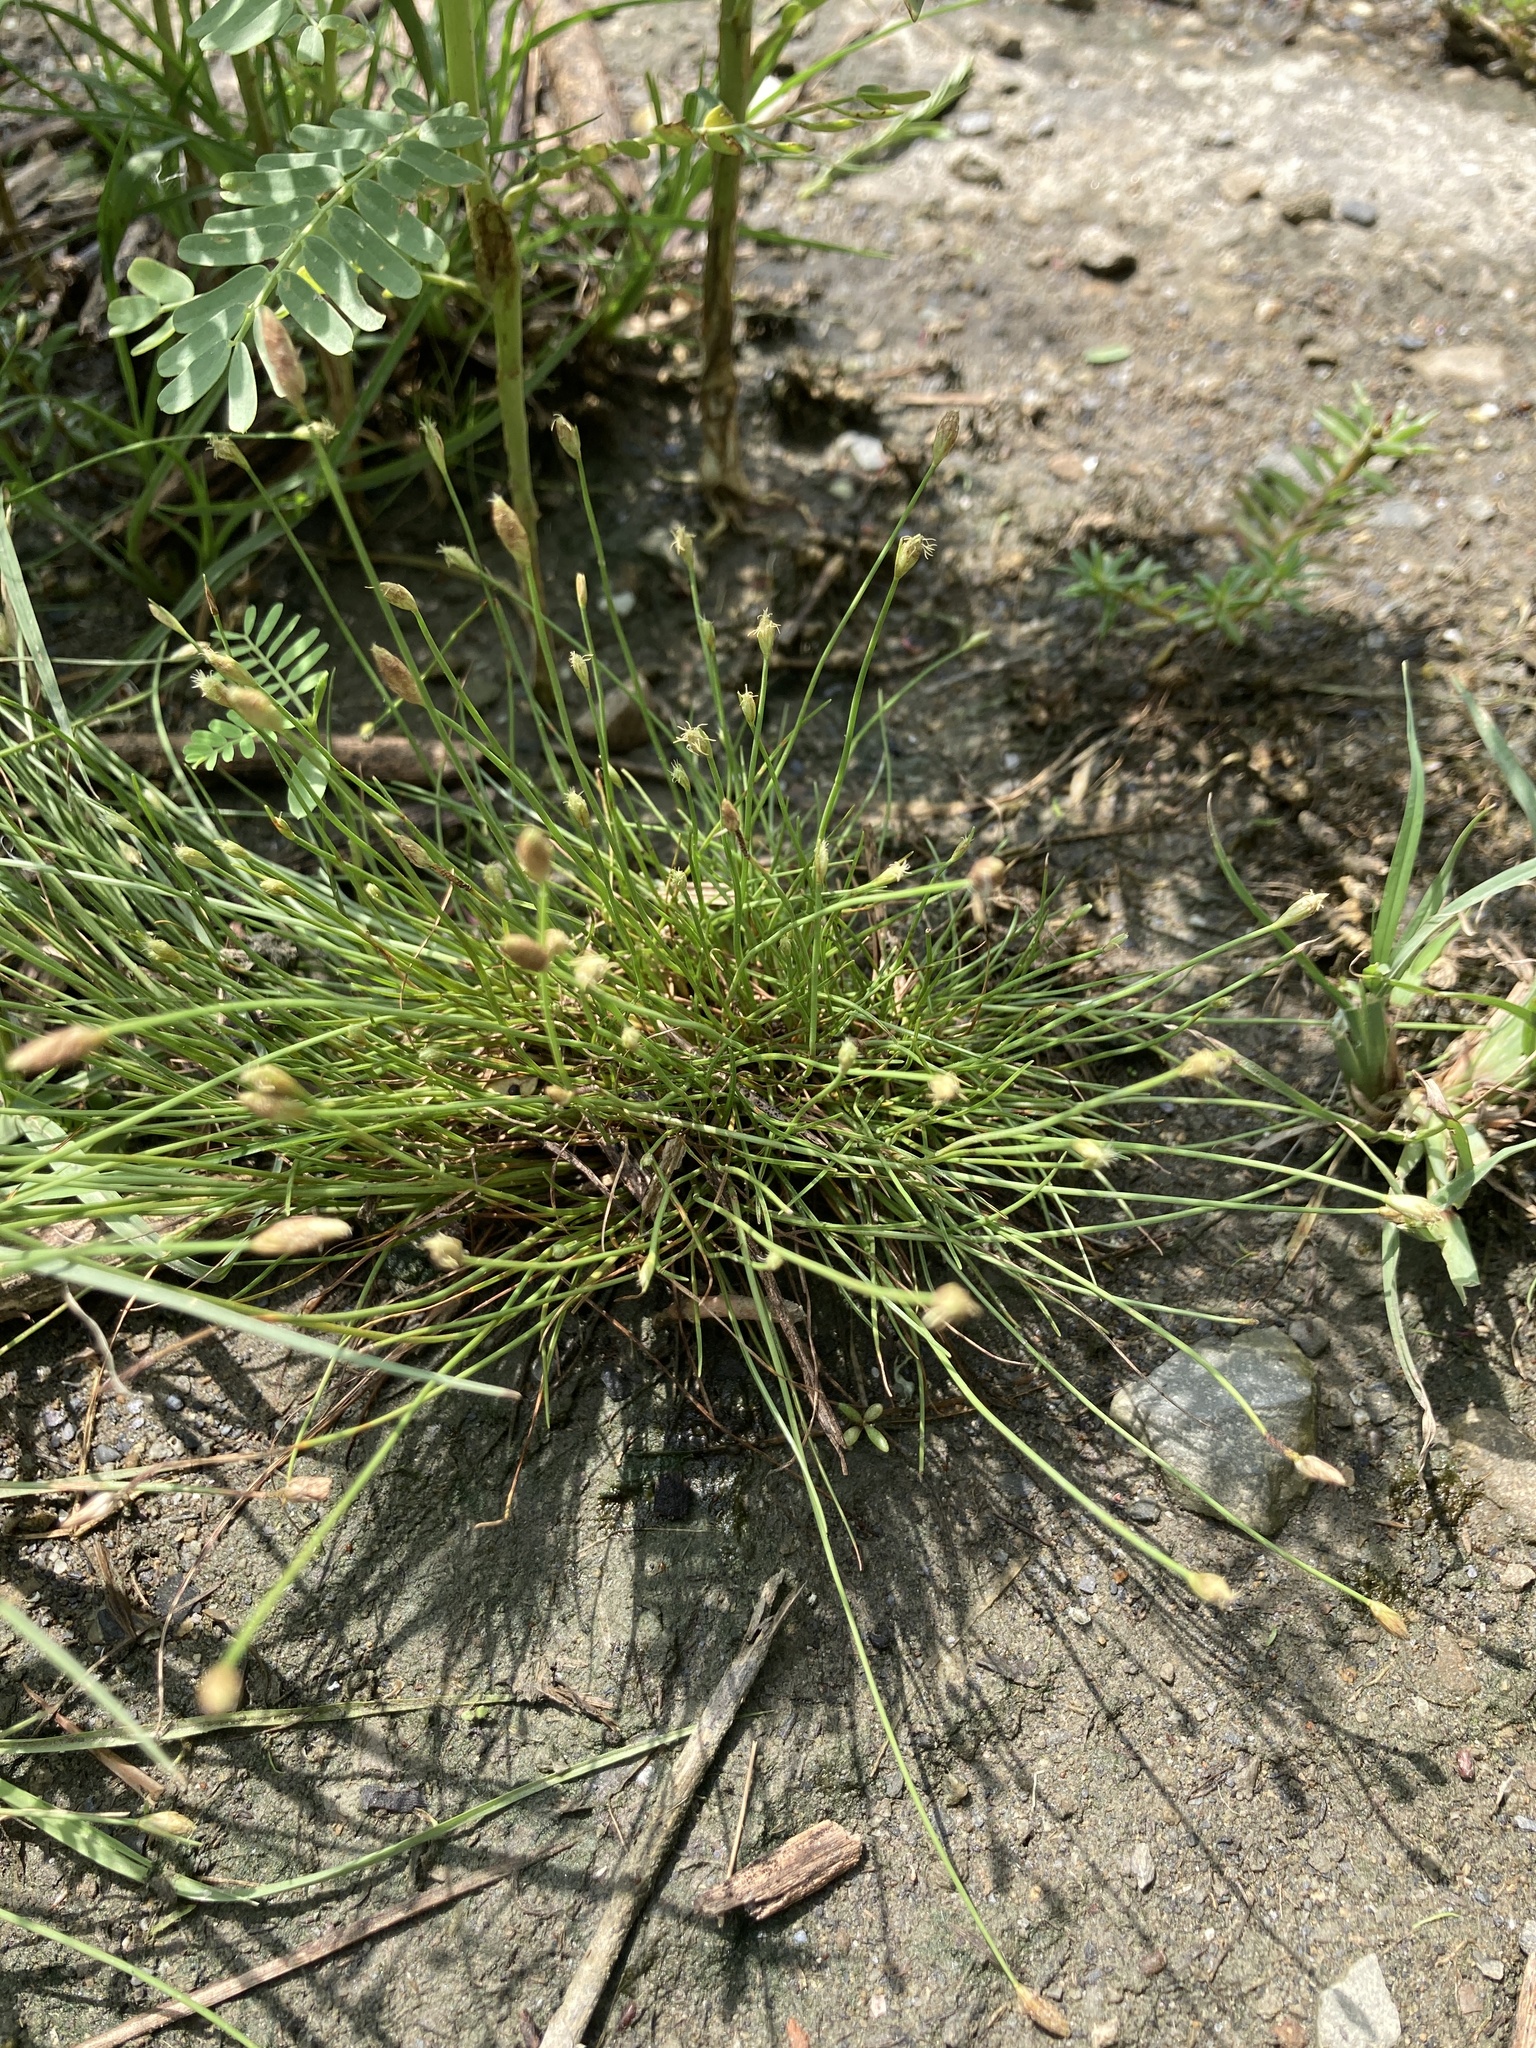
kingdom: Plantae
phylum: Tracheophyta
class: Liliopsida
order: Poales
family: Cyperaceae
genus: Fimbristylis
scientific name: Fimbristylis polytrichoides
